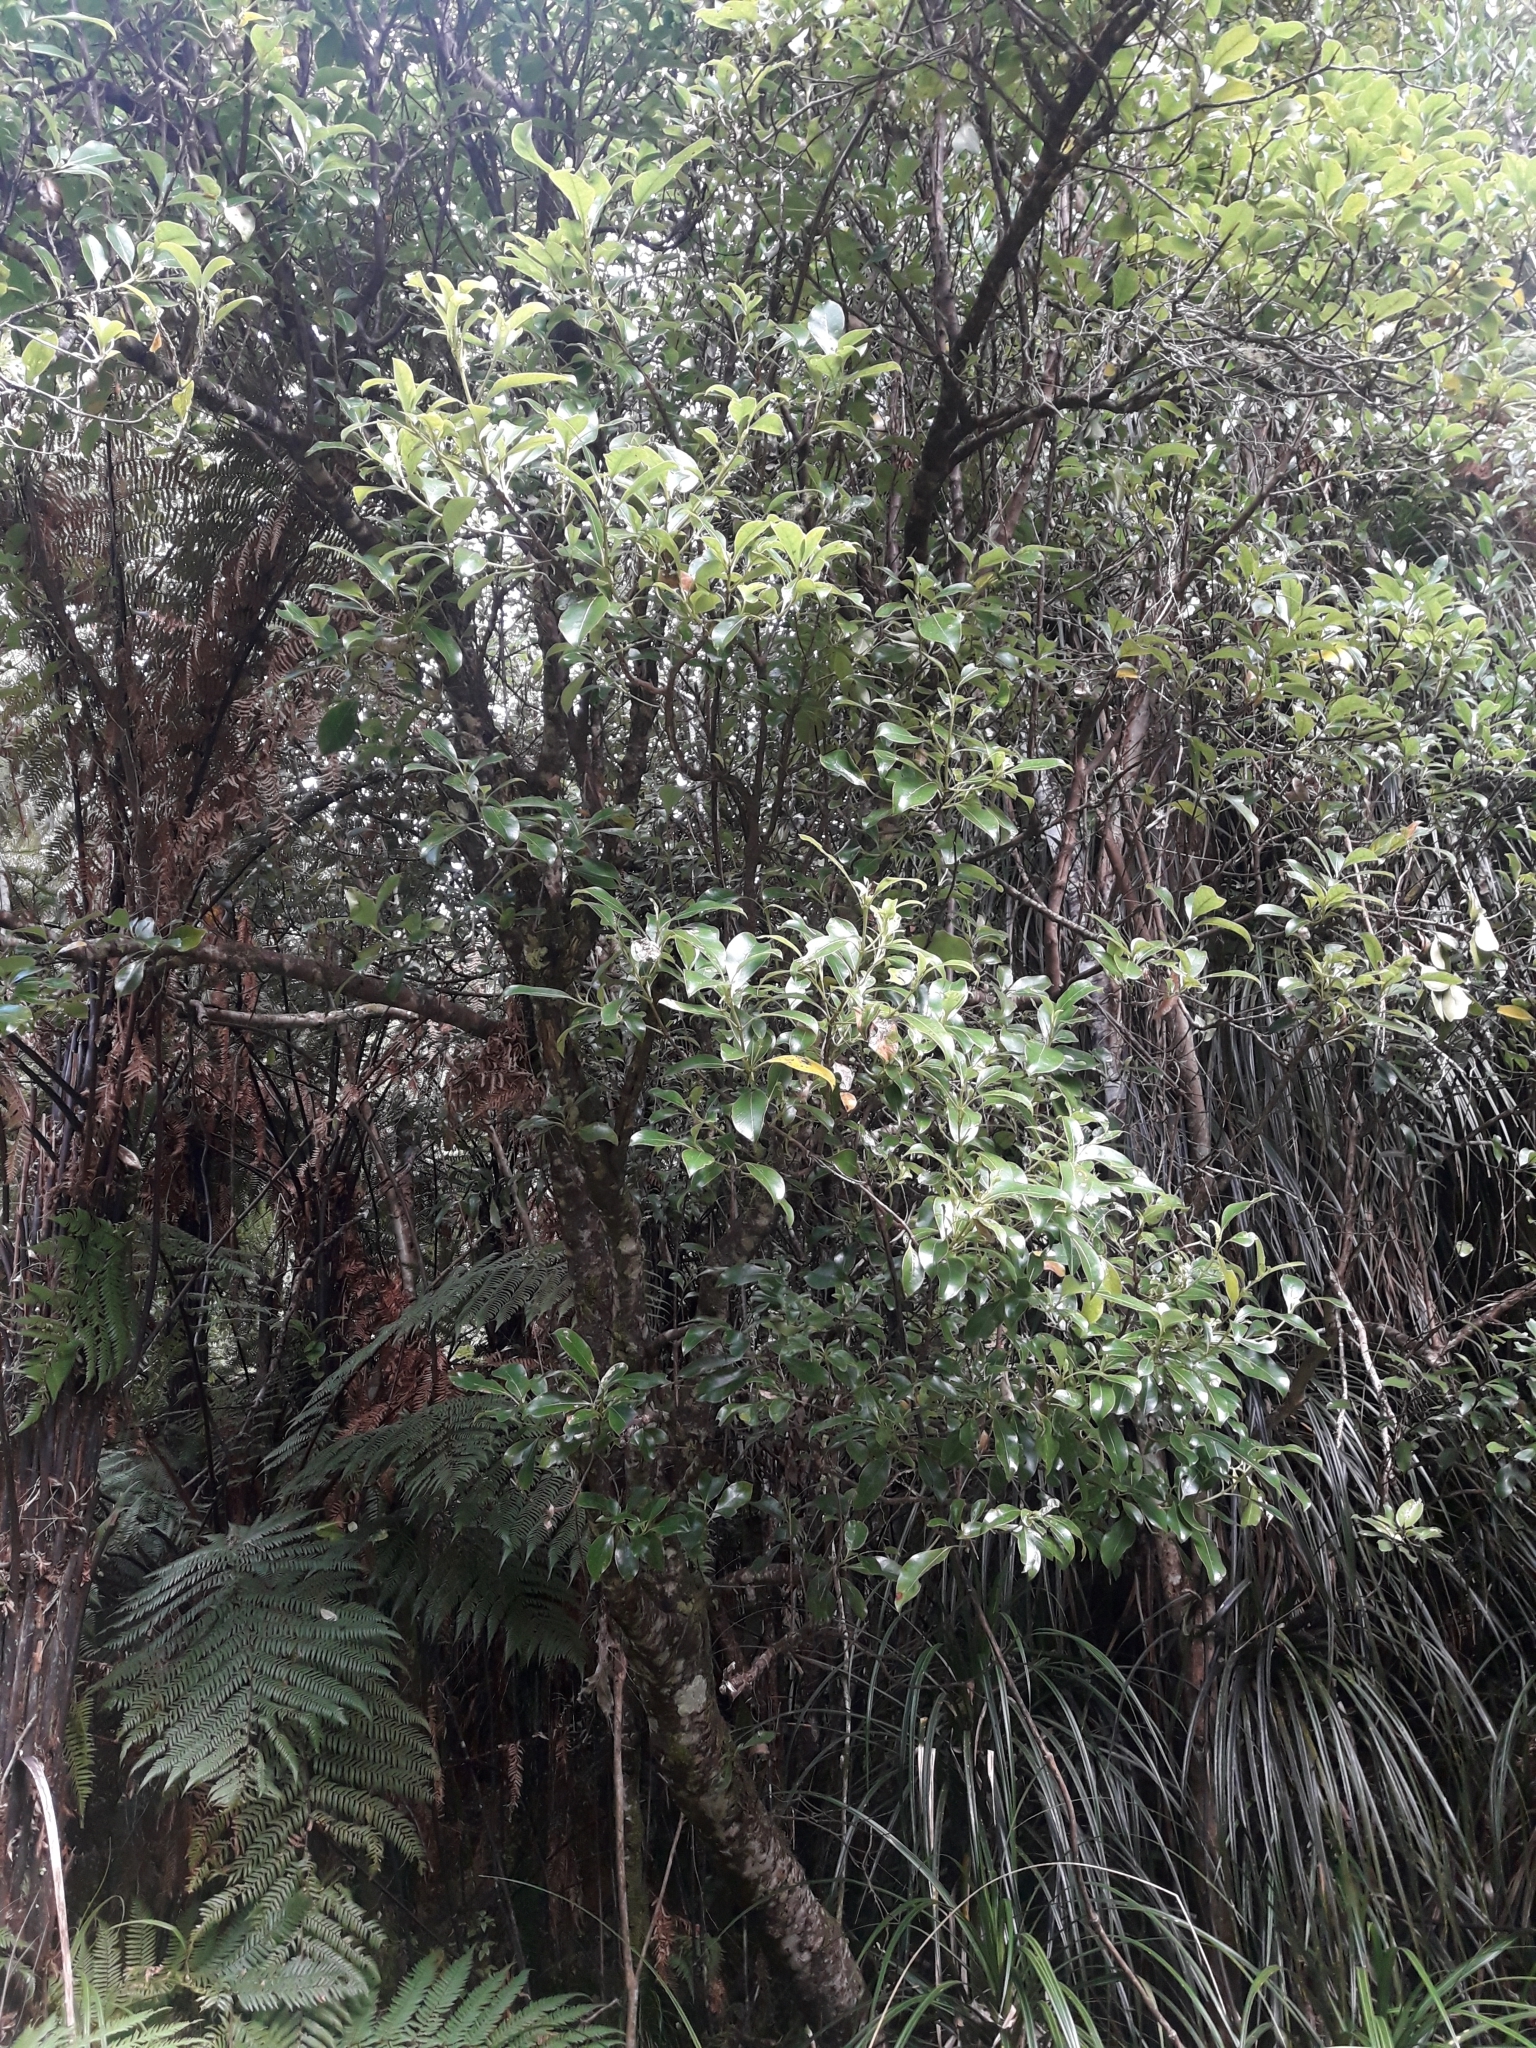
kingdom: Plantae
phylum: Tracheophyta
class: Magnoliopsida
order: Gentianales
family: Rubiaceae
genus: Coprosma
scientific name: Coprosma lucida
